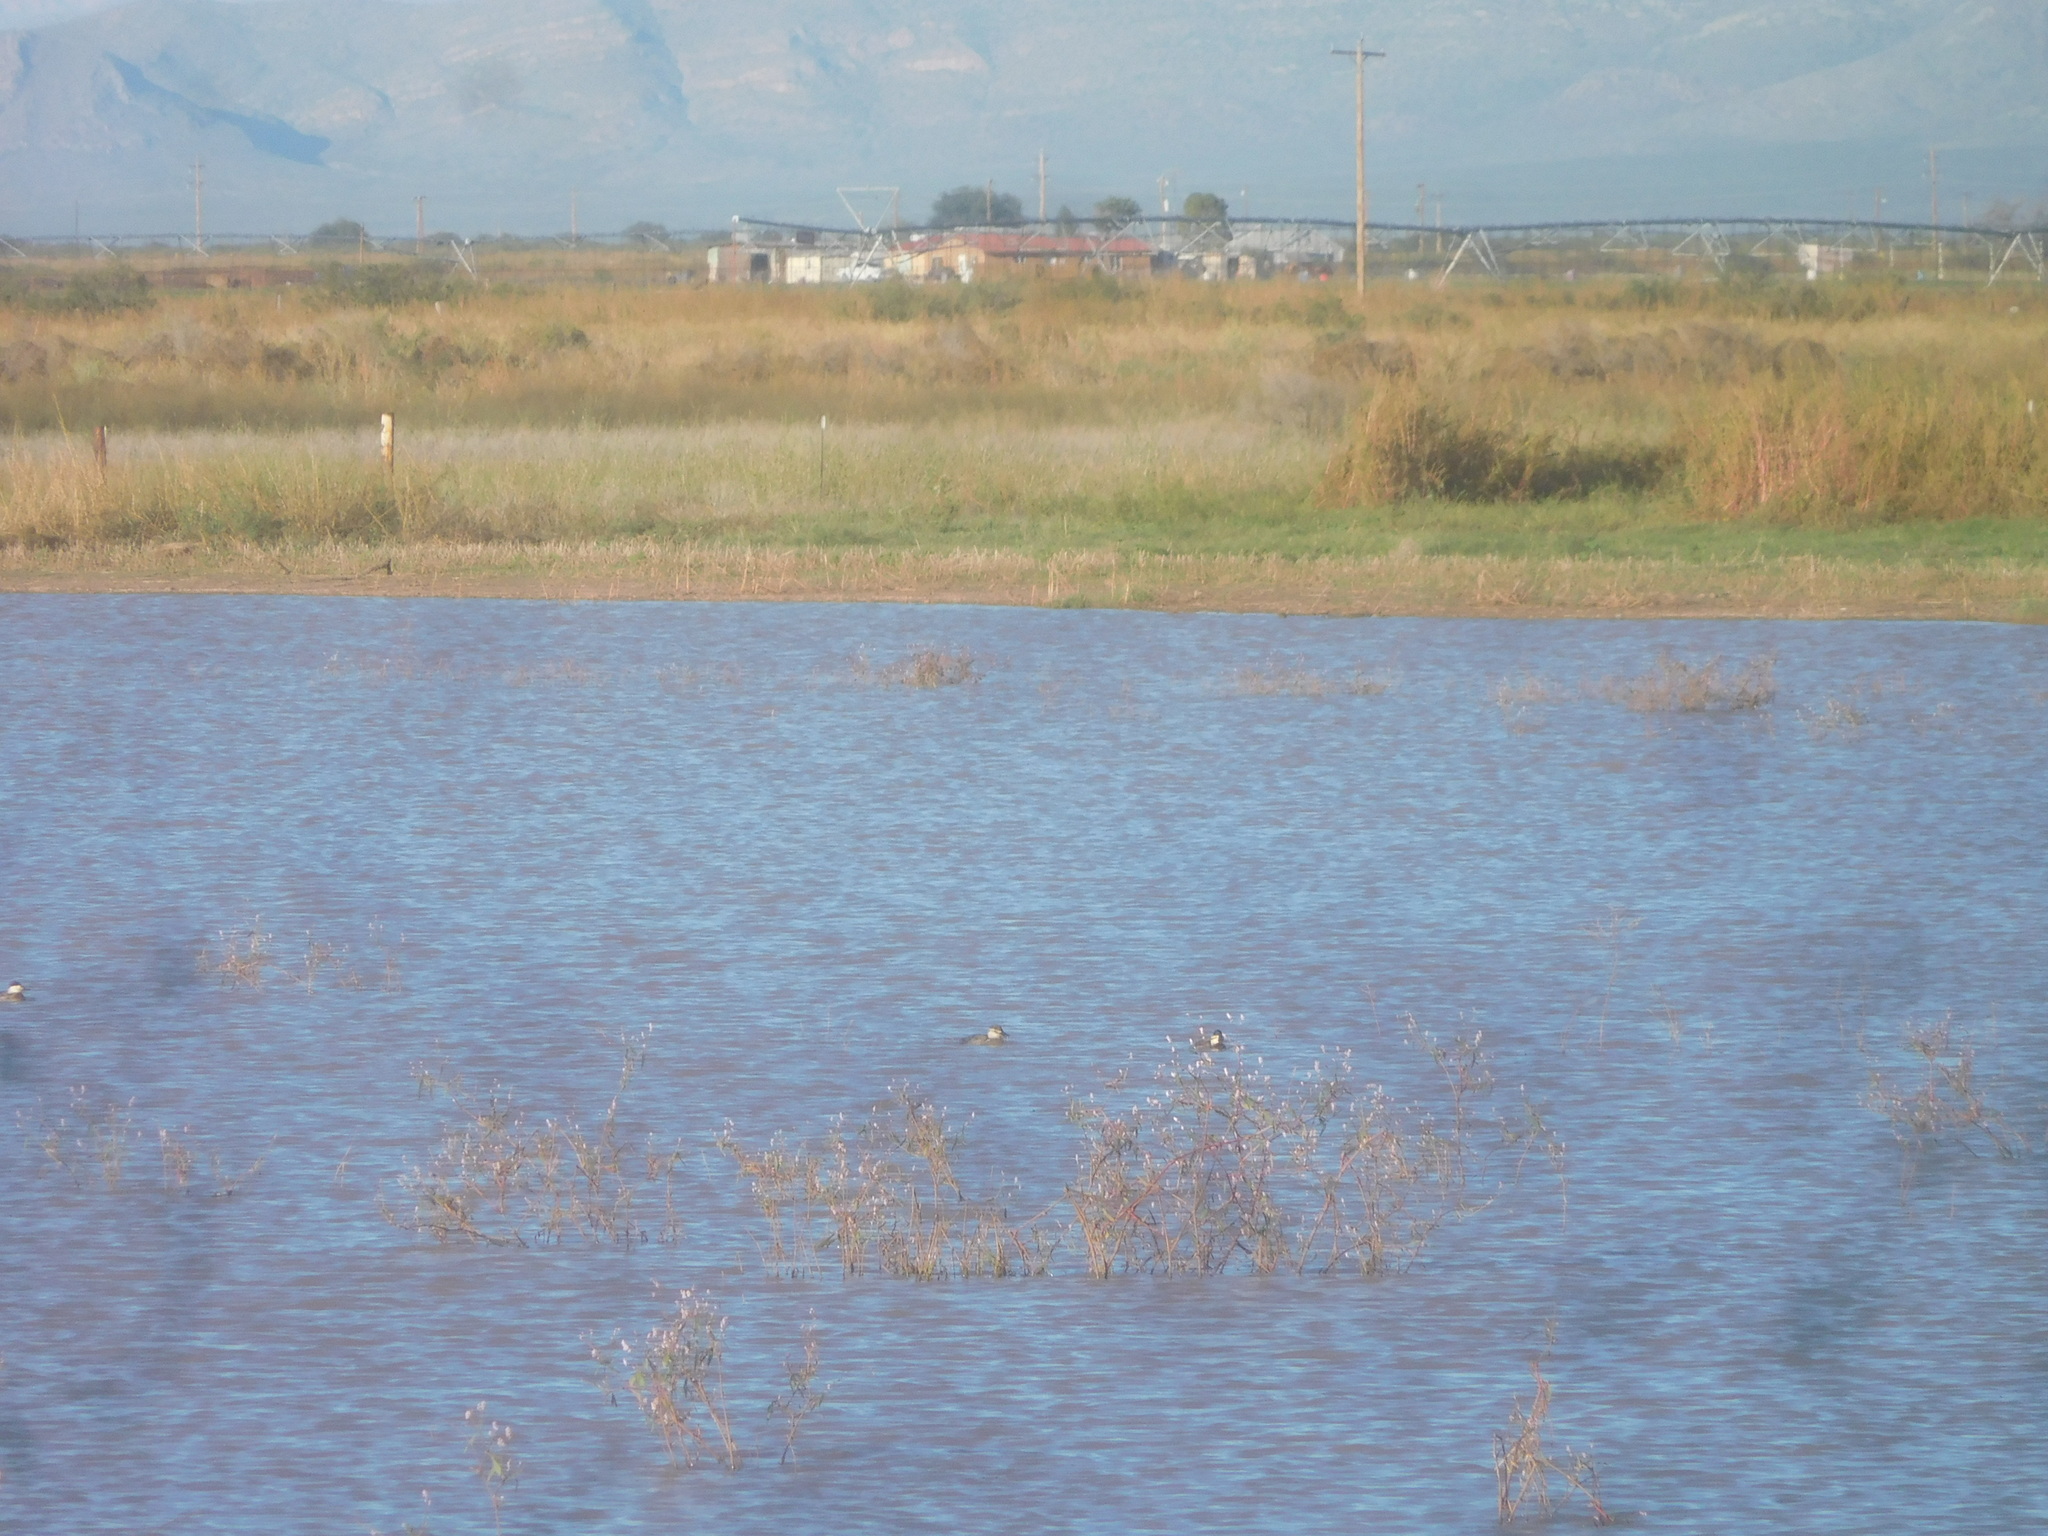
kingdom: Animalia
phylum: Chordata
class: Aves
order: Anseriformes
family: Anatidae
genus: Oxyura
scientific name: Oxyura jamaicensis
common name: Ruddy duck
